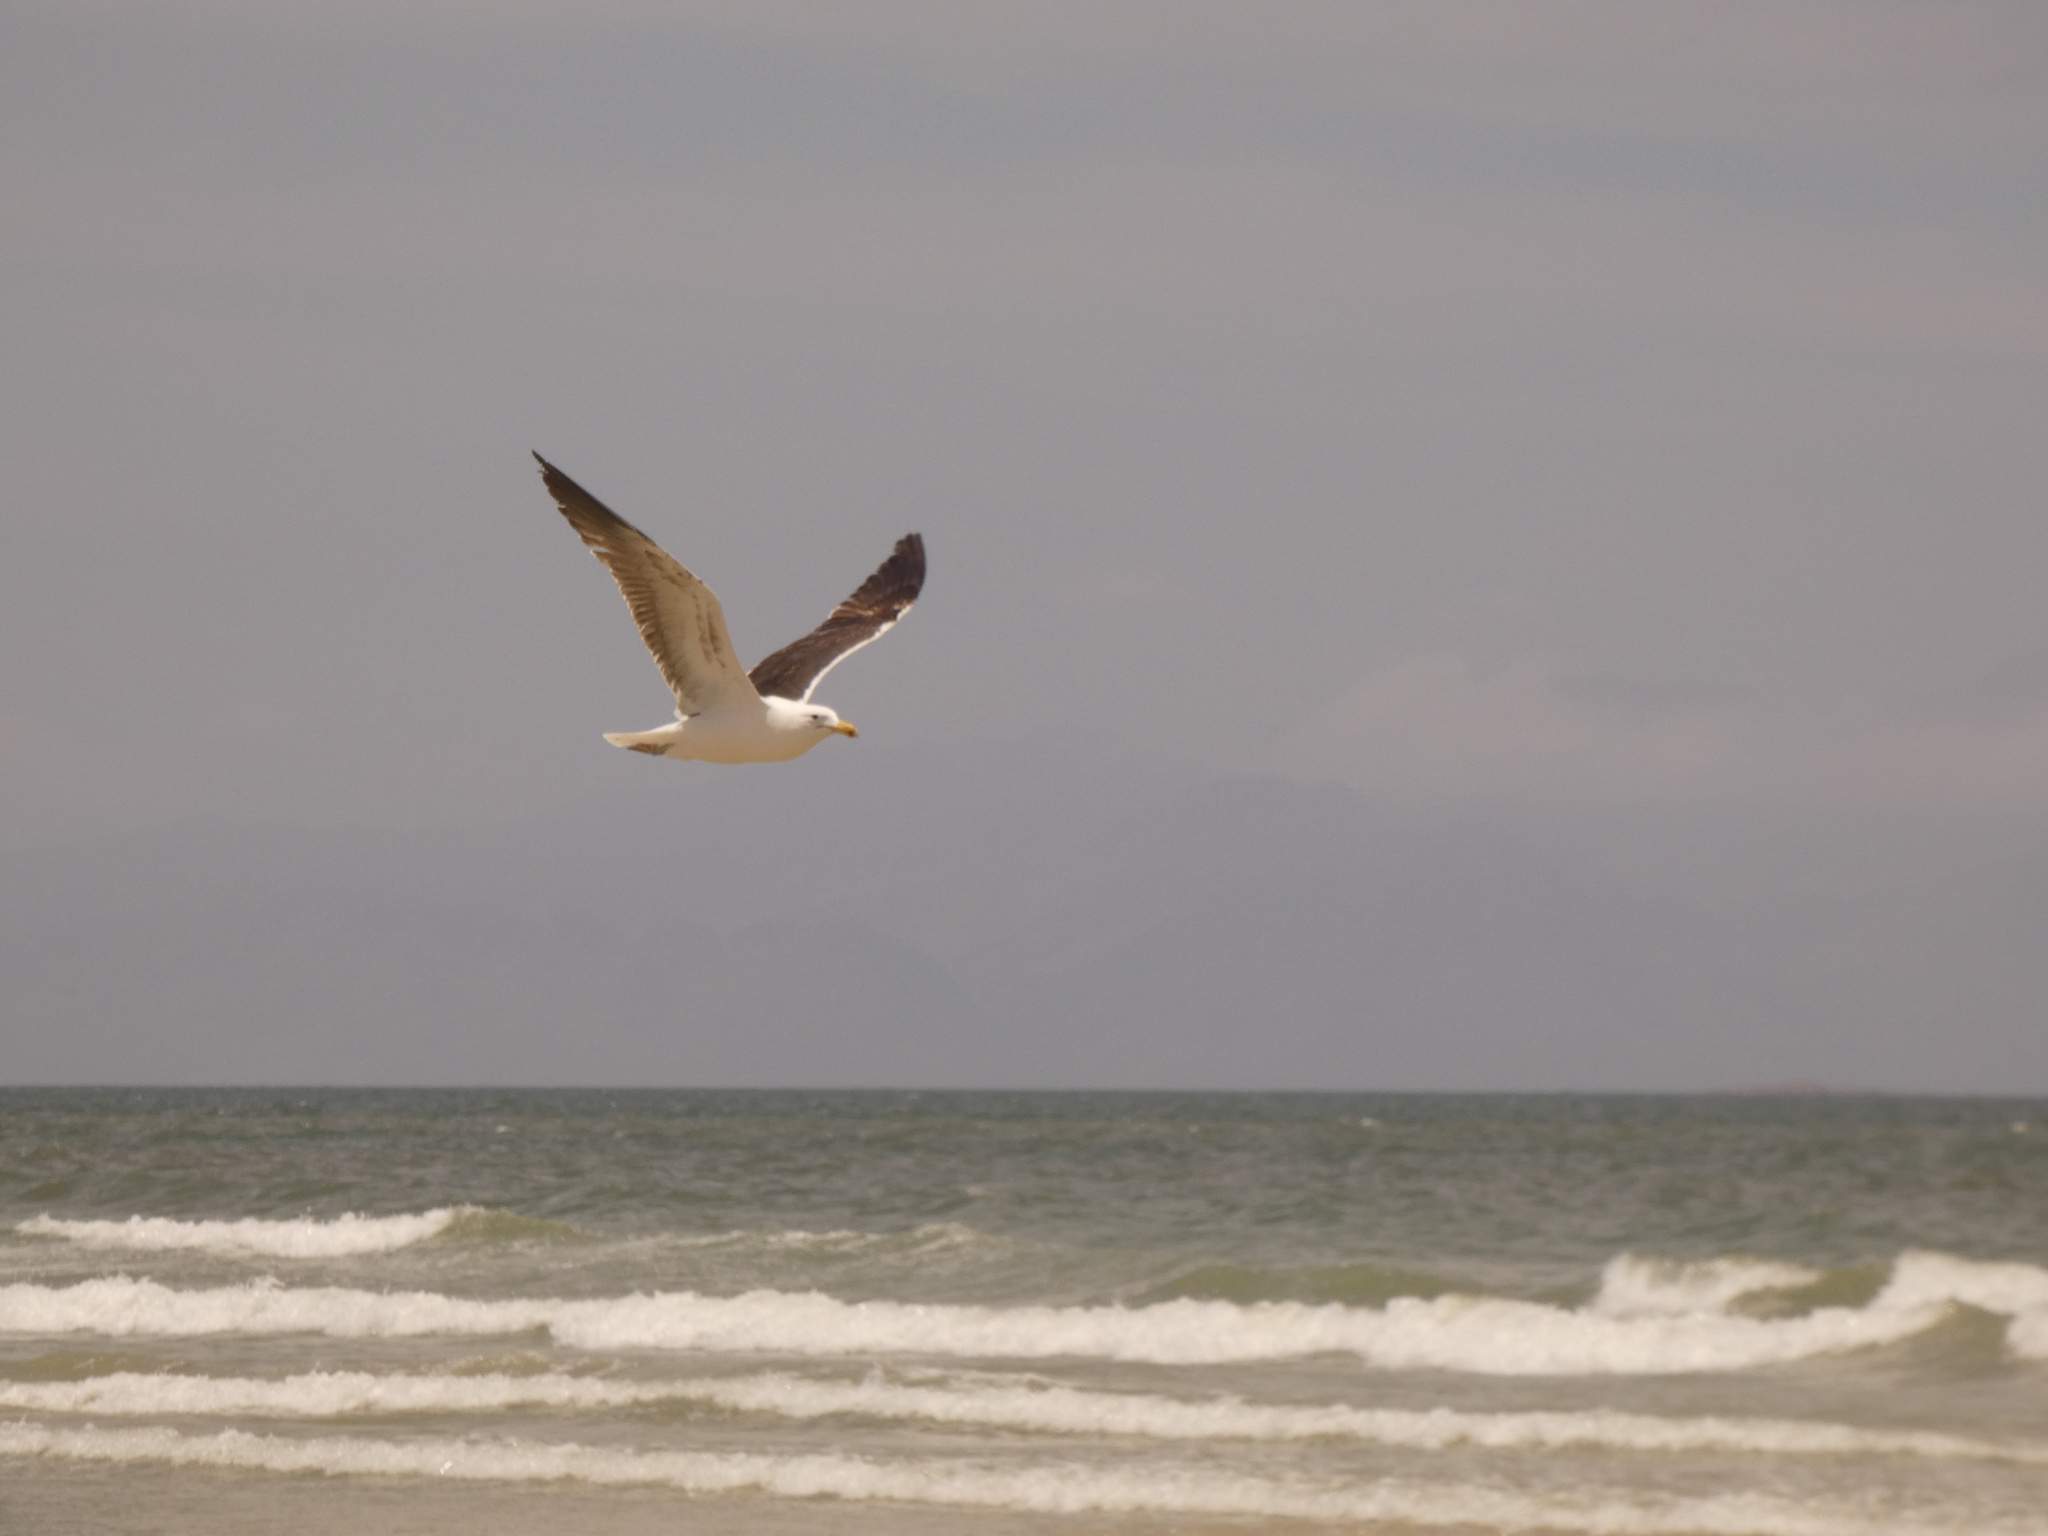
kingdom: Animalia
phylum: Chordata
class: Aves
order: Charadriiformes
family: Laridae
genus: Larus
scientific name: Larus dominicanus
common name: Kelp gull
